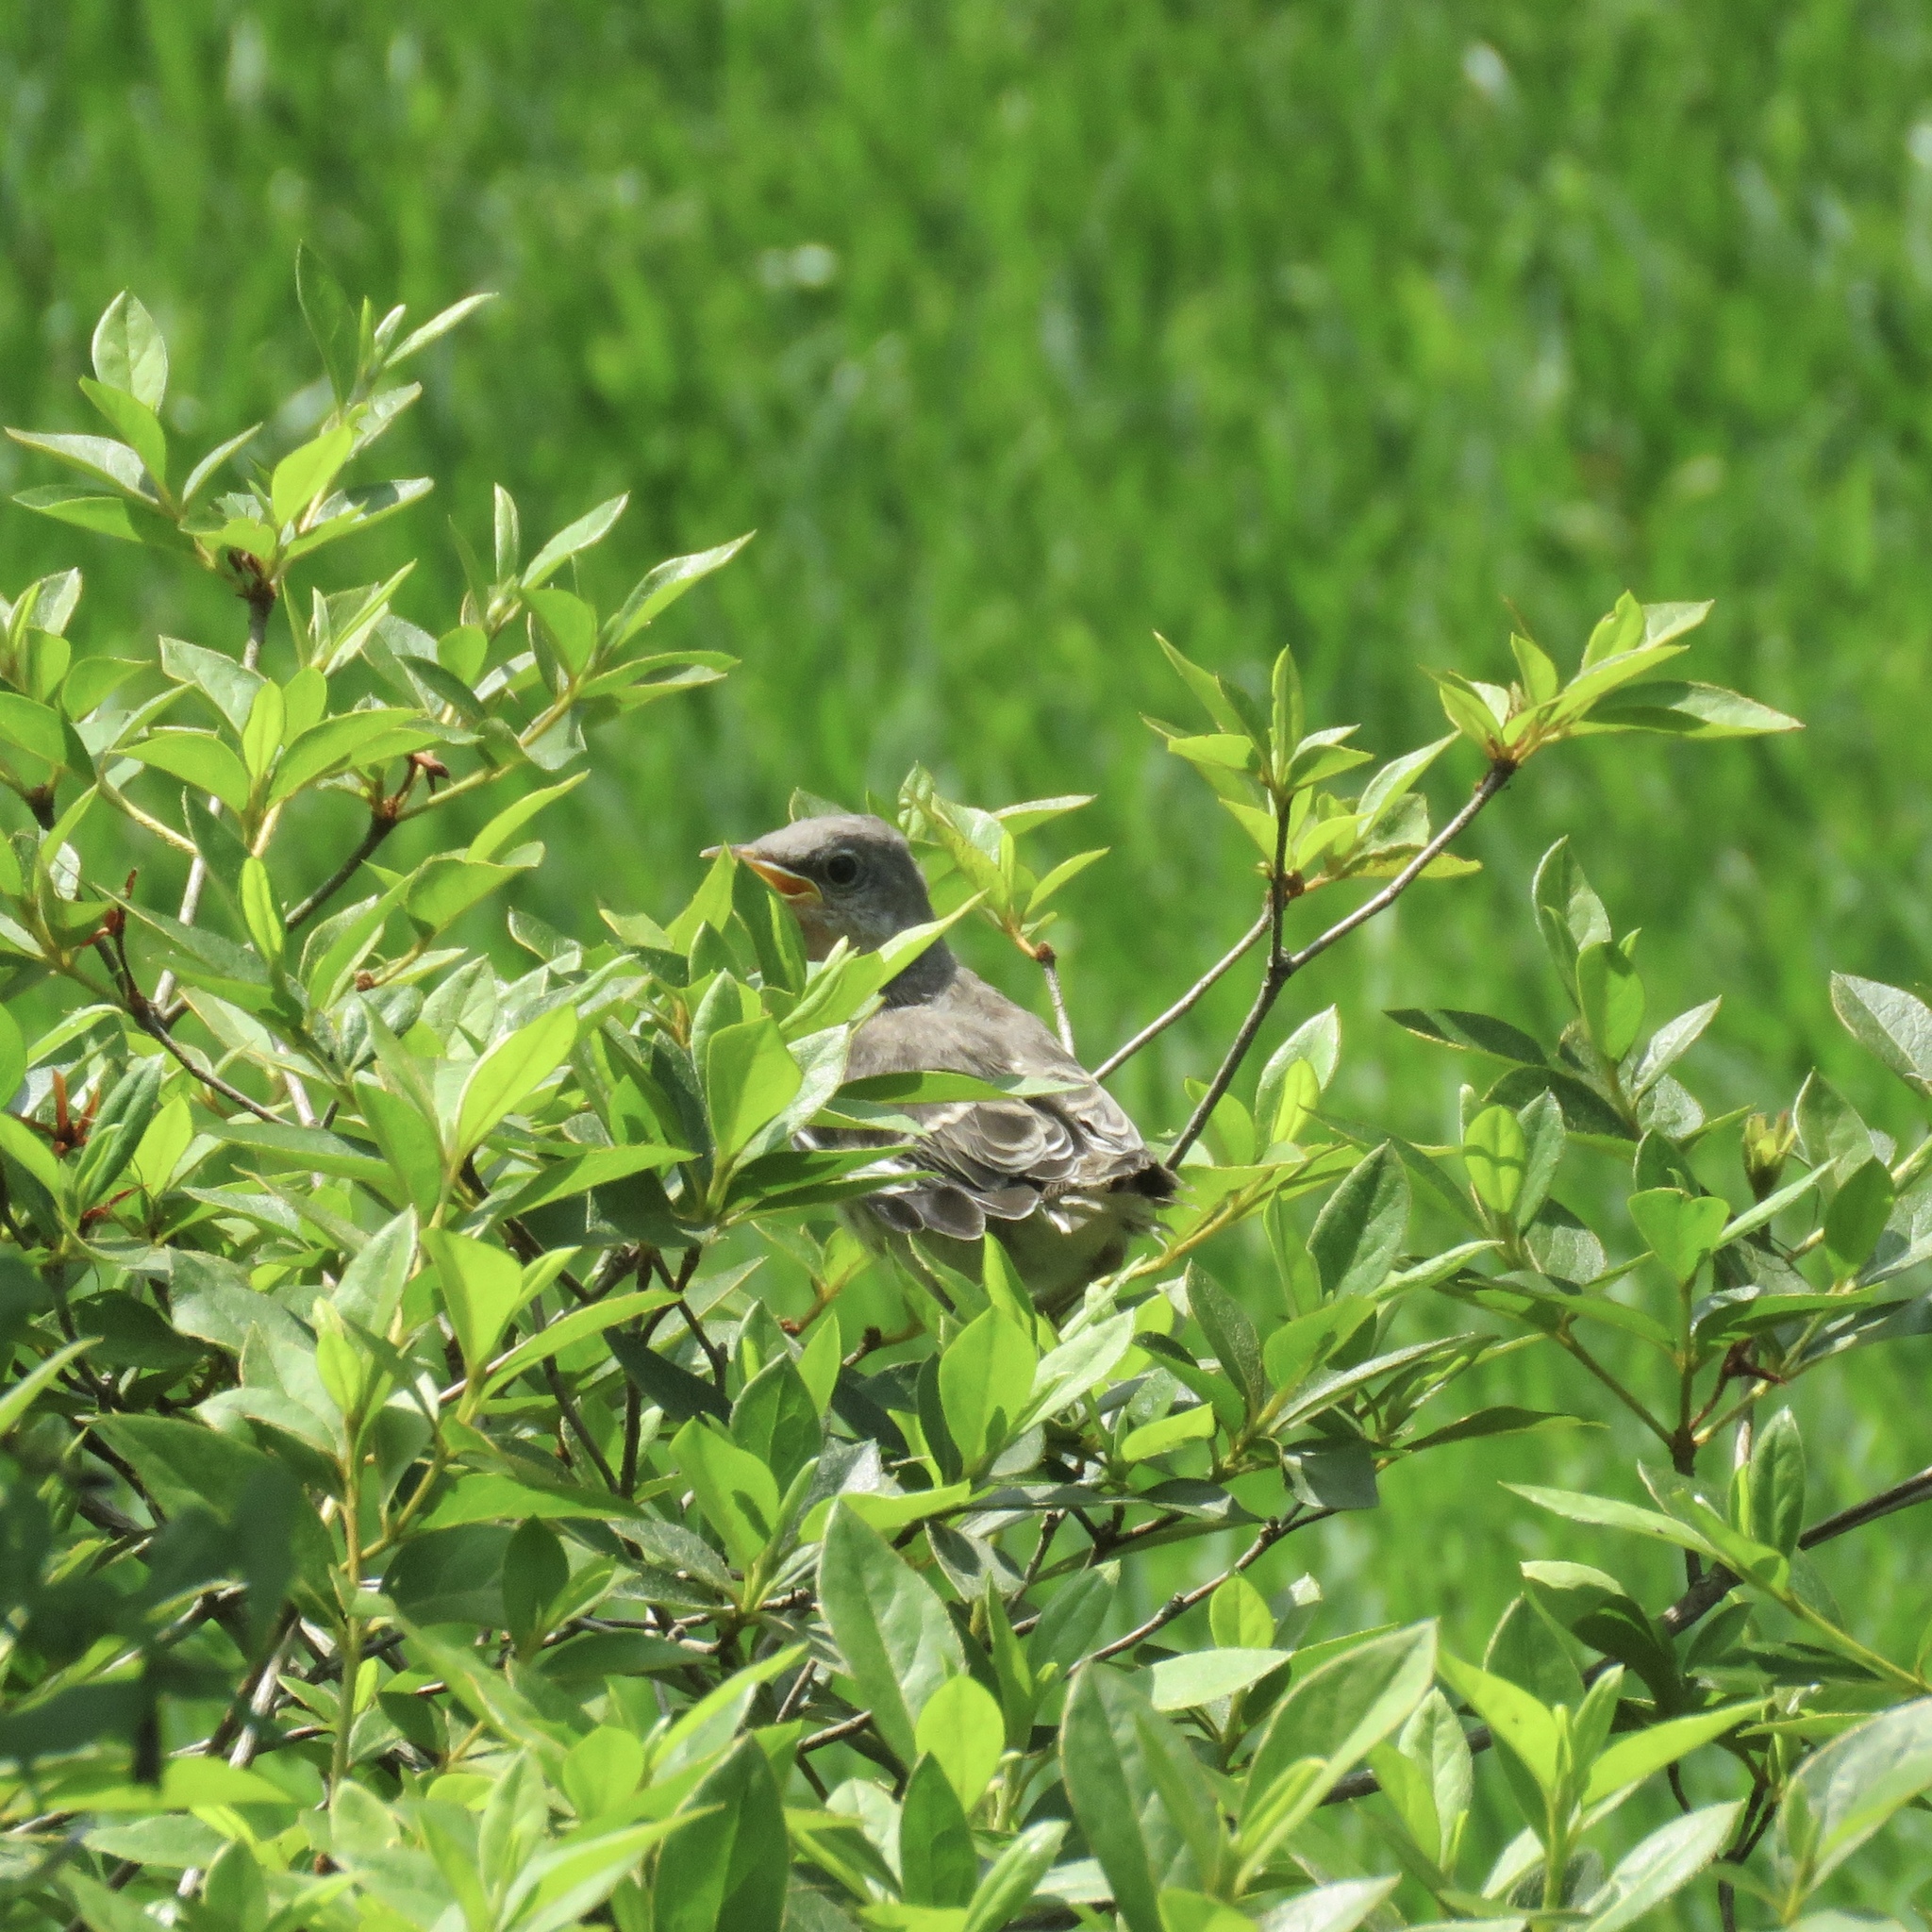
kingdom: Animalia
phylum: Chordata
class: Aves
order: Passeriformes
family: Mimidae
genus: Mimus
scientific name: Mimus polyglottos
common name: Northern mockingbird
